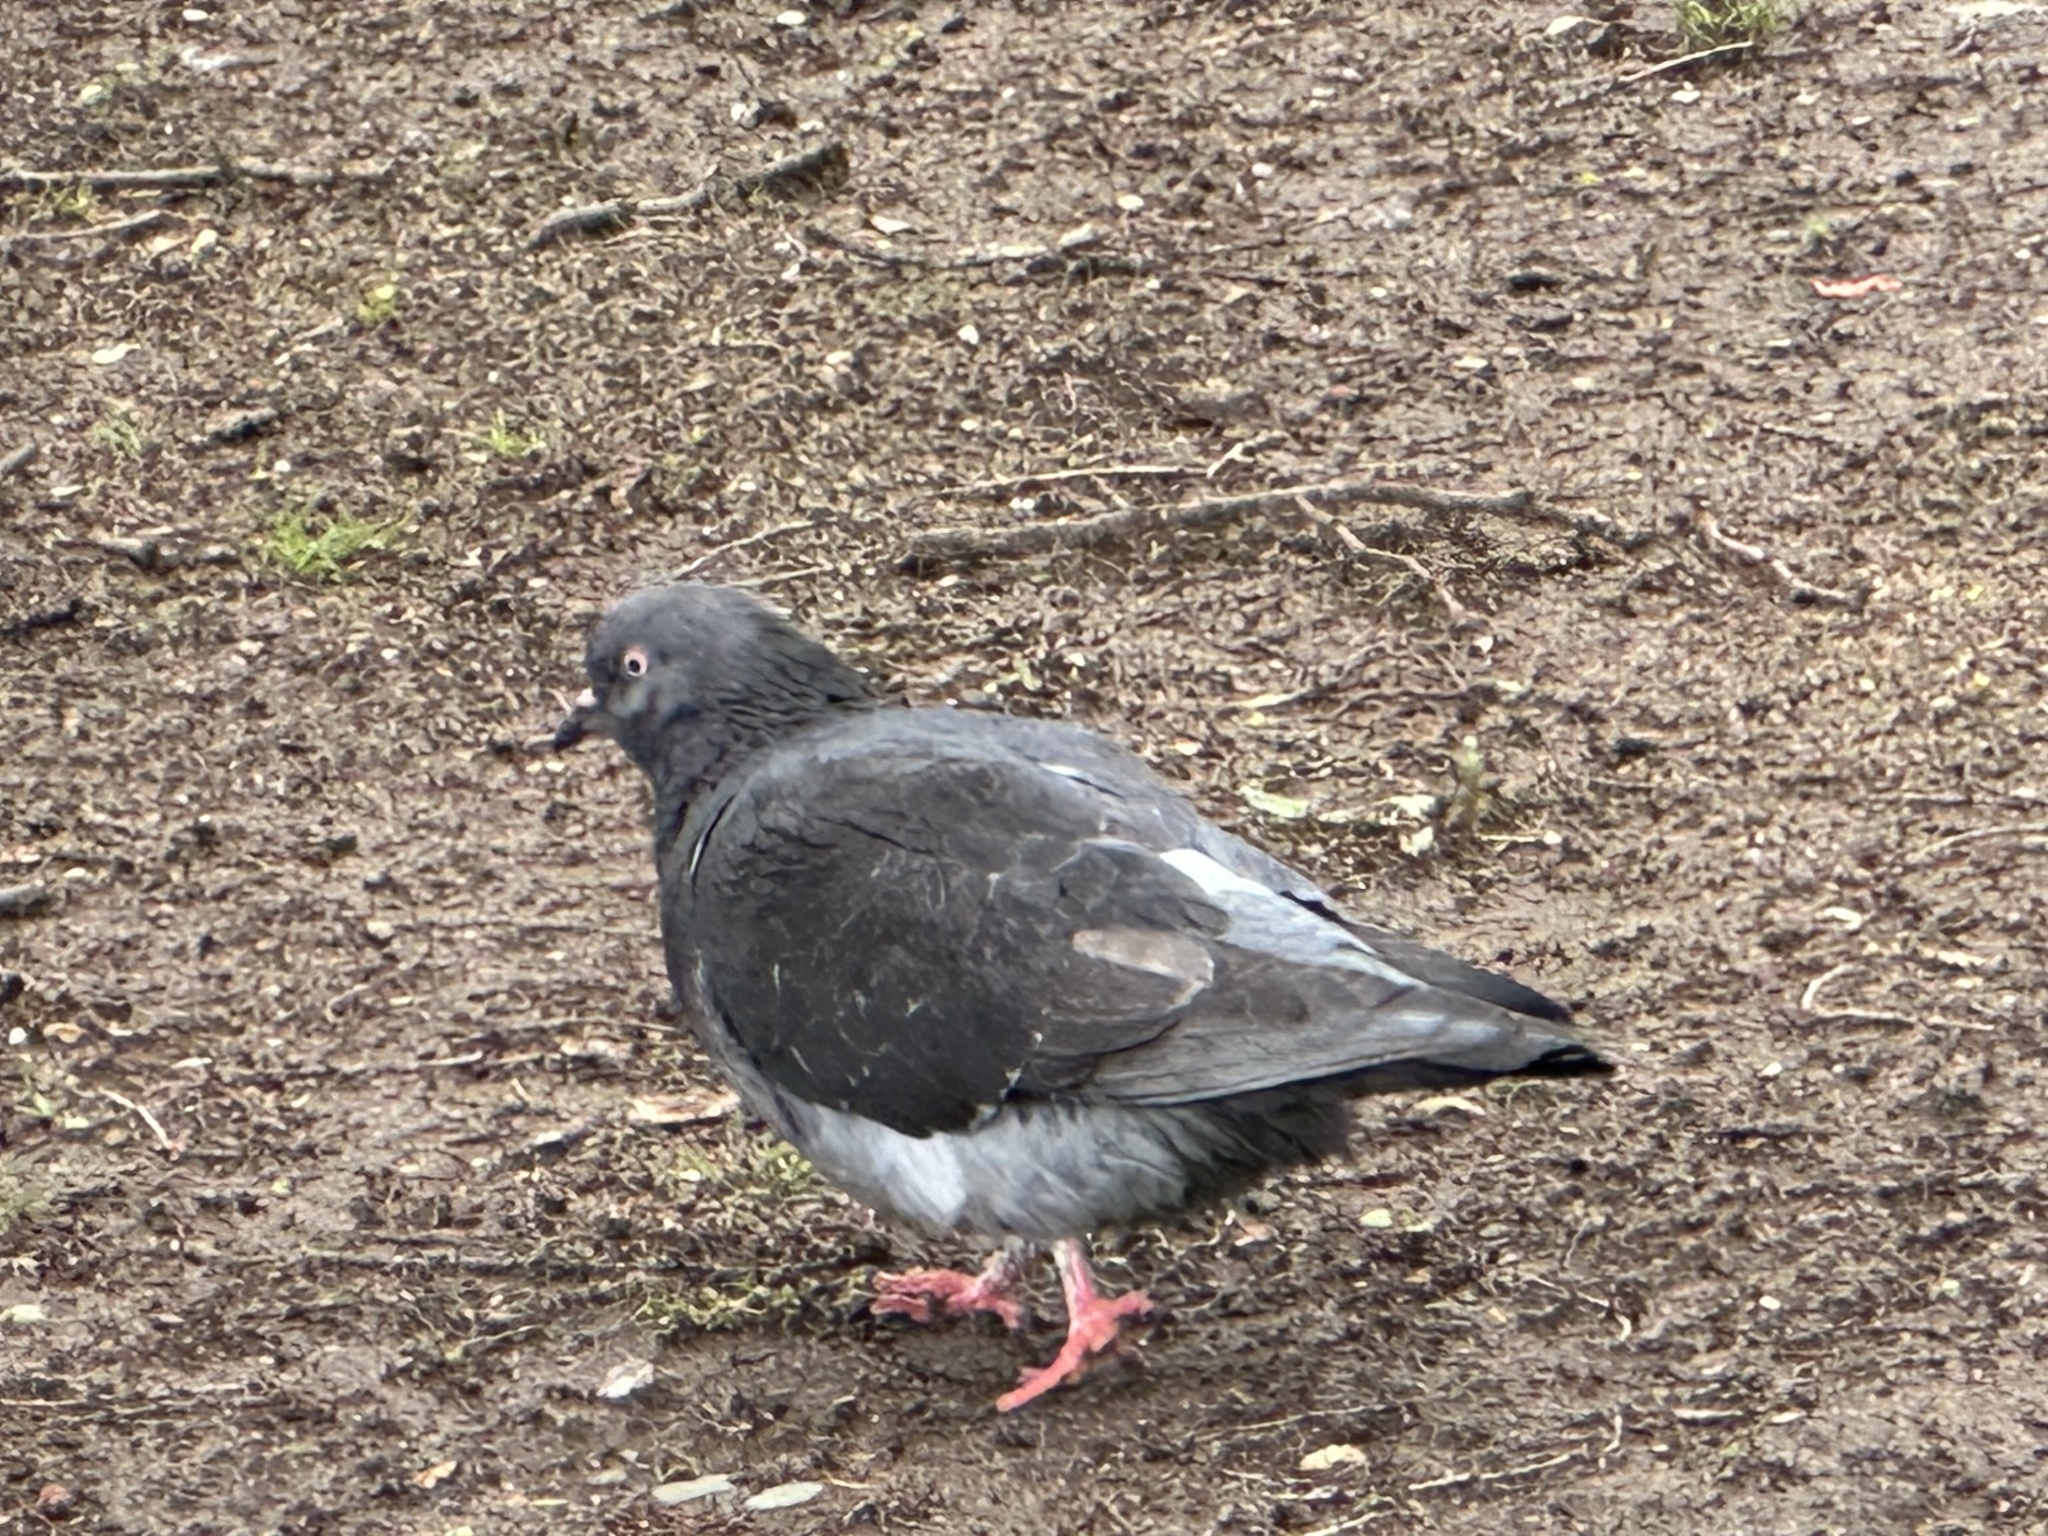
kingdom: Animalia
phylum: Chordata
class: Aves
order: Columbiformes
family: Columbidae
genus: Columba
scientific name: Columba livia
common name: Rock pigeon
